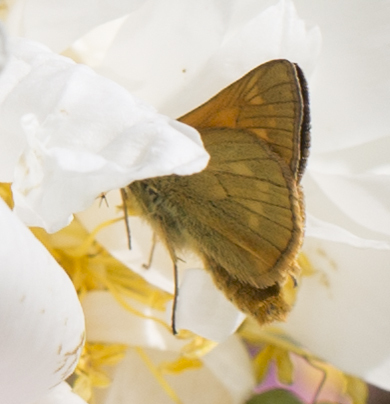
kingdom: Animalia
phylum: Arthropoda
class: Insecta
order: Lepidoptera
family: Hesperiidae
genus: Ochlodes
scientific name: Ochlodes venata
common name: Large skipper
